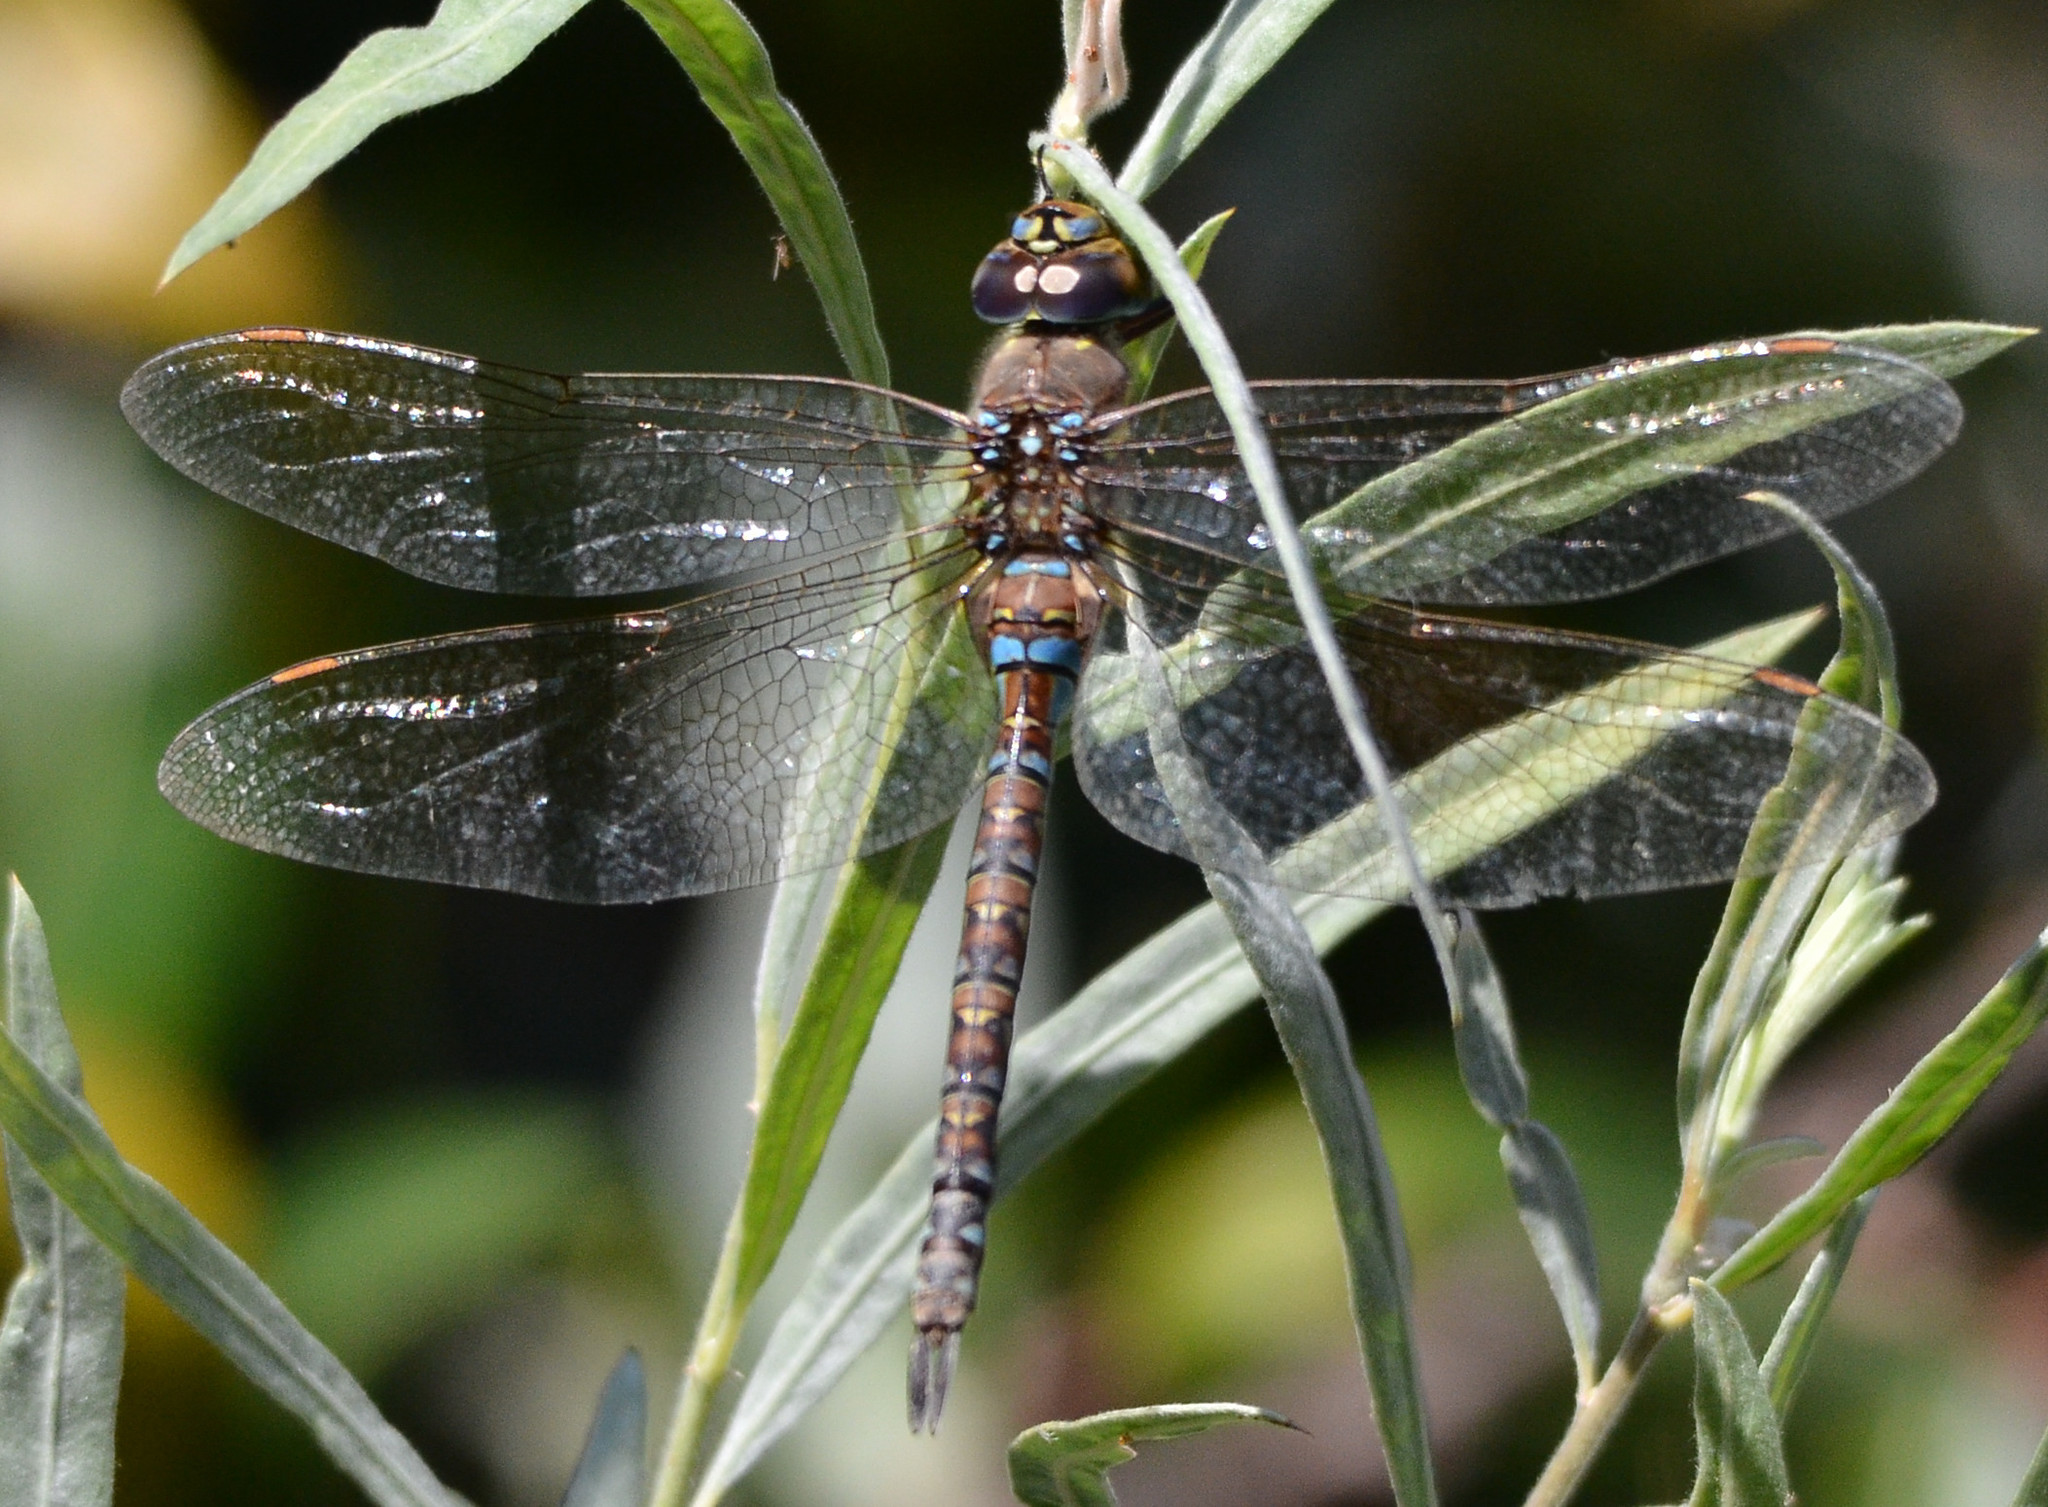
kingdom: Animalia
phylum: Arthropoda
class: Insecta
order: Odonata
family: Aeshnidae
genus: Rhionaeschna
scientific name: Rhionaeschna multicolor
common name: Blue-eyed darner
